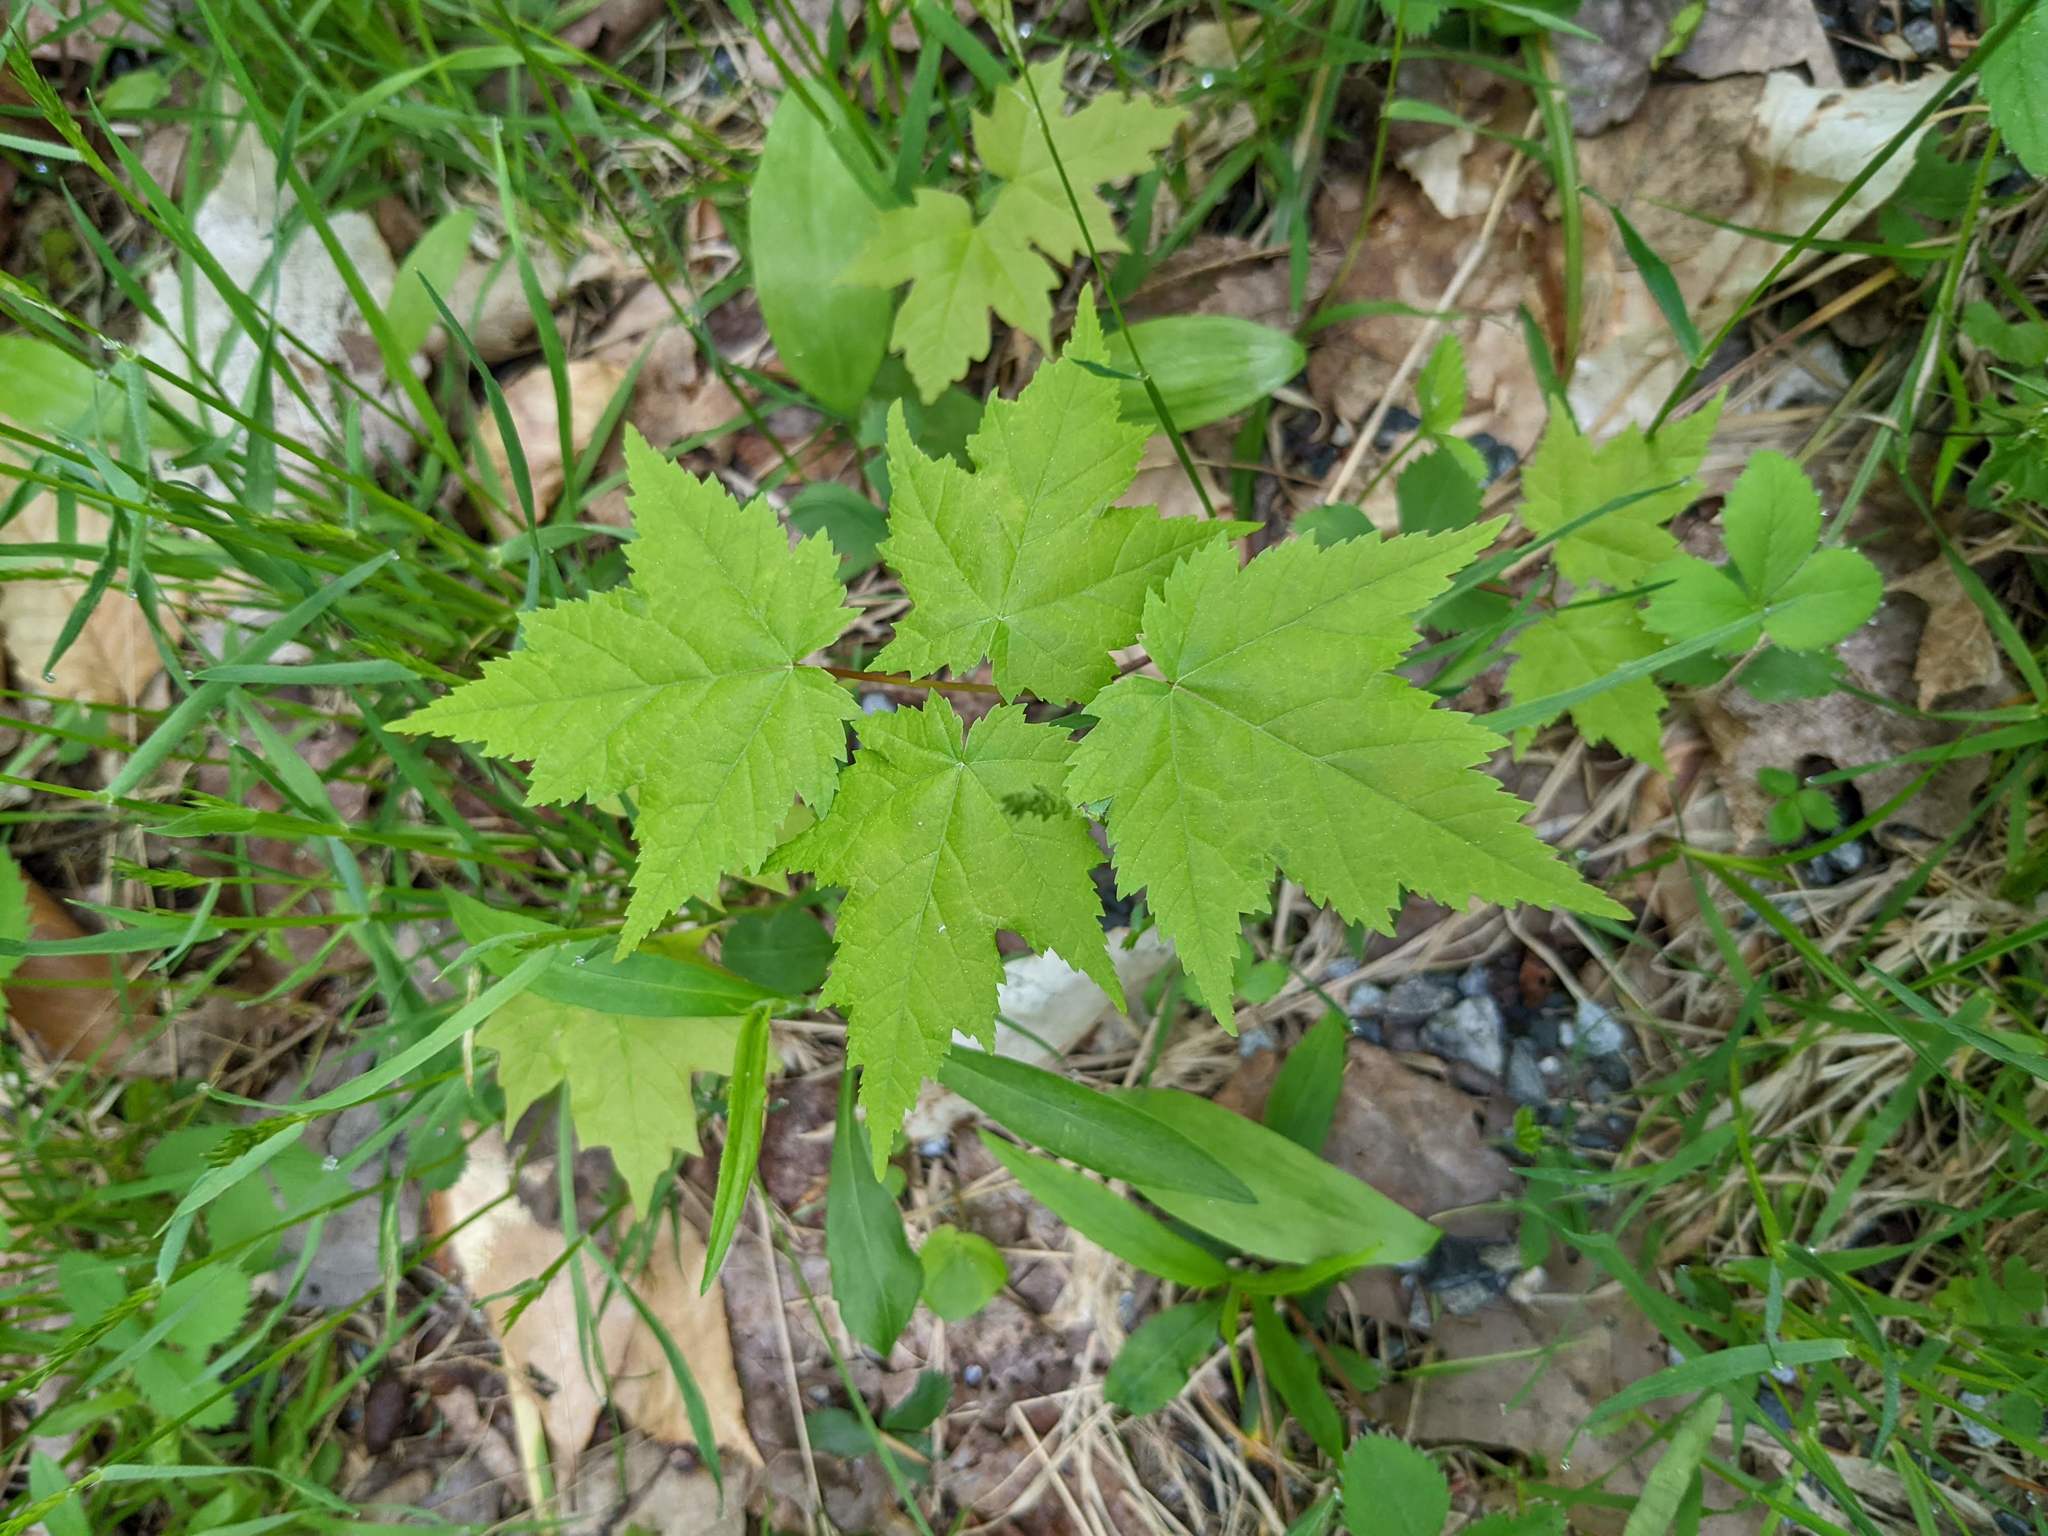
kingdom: Plantae
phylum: Tracheophyta
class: Magnoliopsida
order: Sapindales
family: Sapindaceae
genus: Acer
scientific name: Acer rubrum
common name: Red maple
